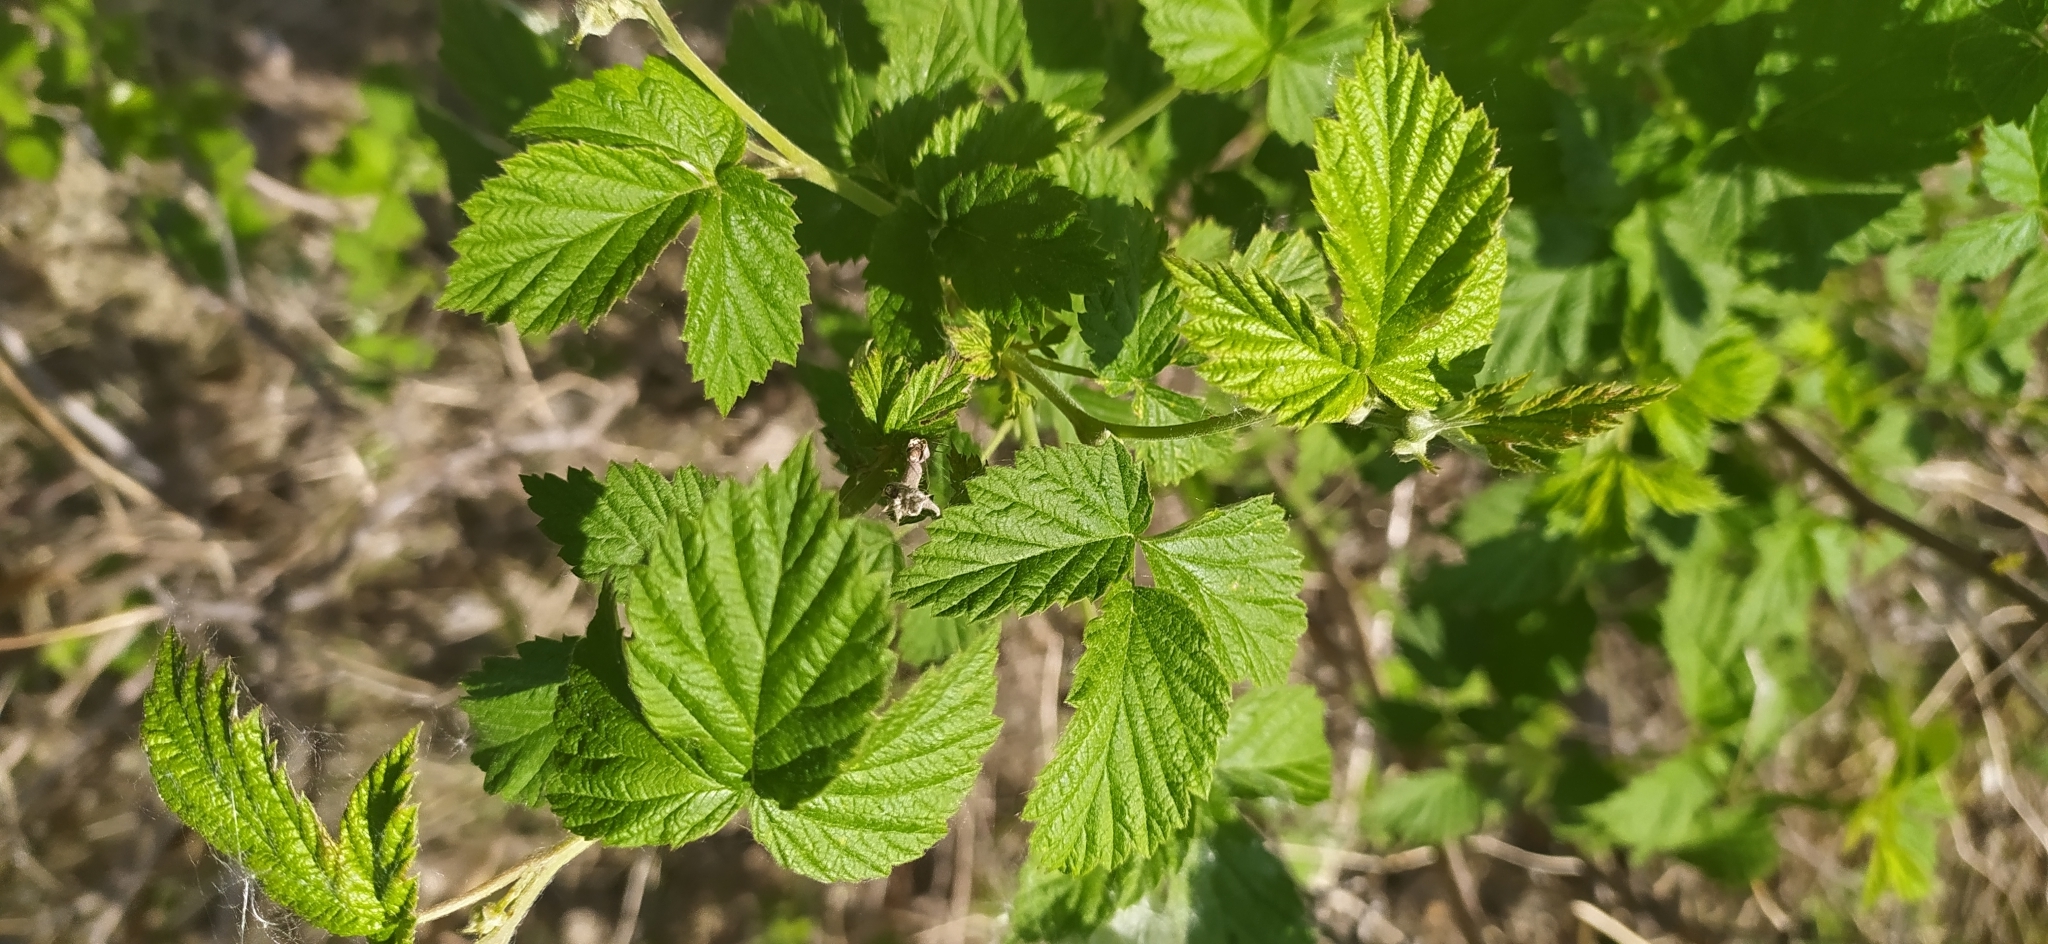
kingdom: Plantae
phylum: Tracheophyta
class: Magnoliopsida
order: Rosales
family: Rosaceae
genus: Rubus
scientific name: Rubus idaeus
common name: Raspberry
